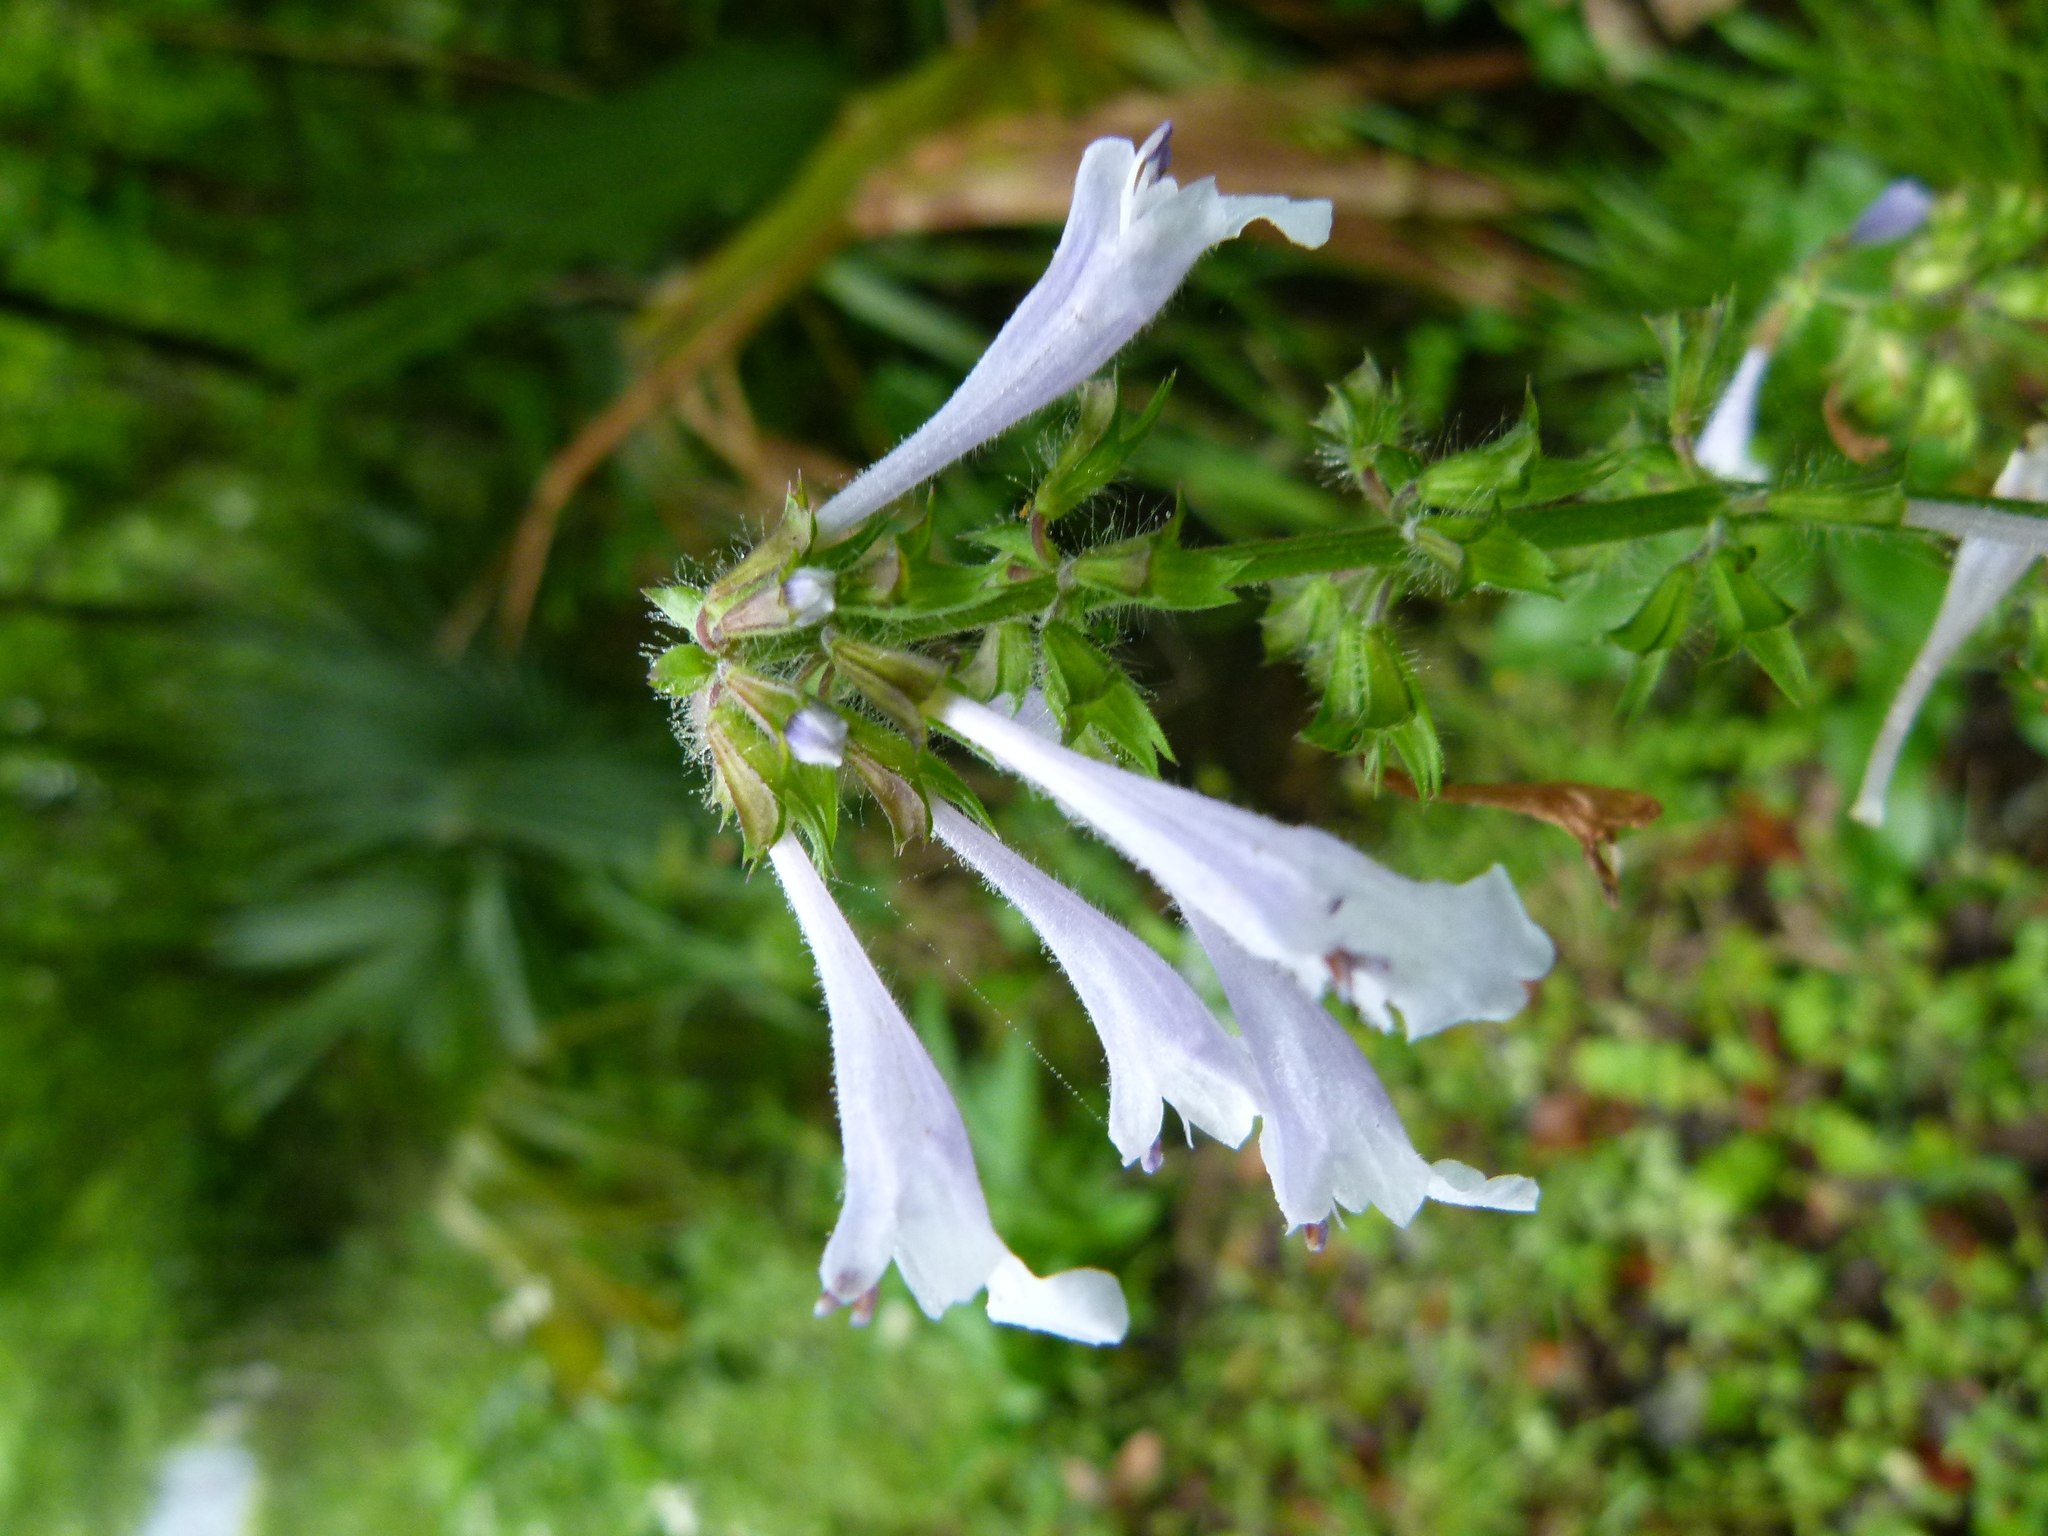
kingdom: Plantae
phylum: Tracheophyta
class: Magnoliopsida
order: Lamiales
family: Lamiaceae
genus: Salvia
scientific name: Salvia lyrata
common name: Cancerweed
